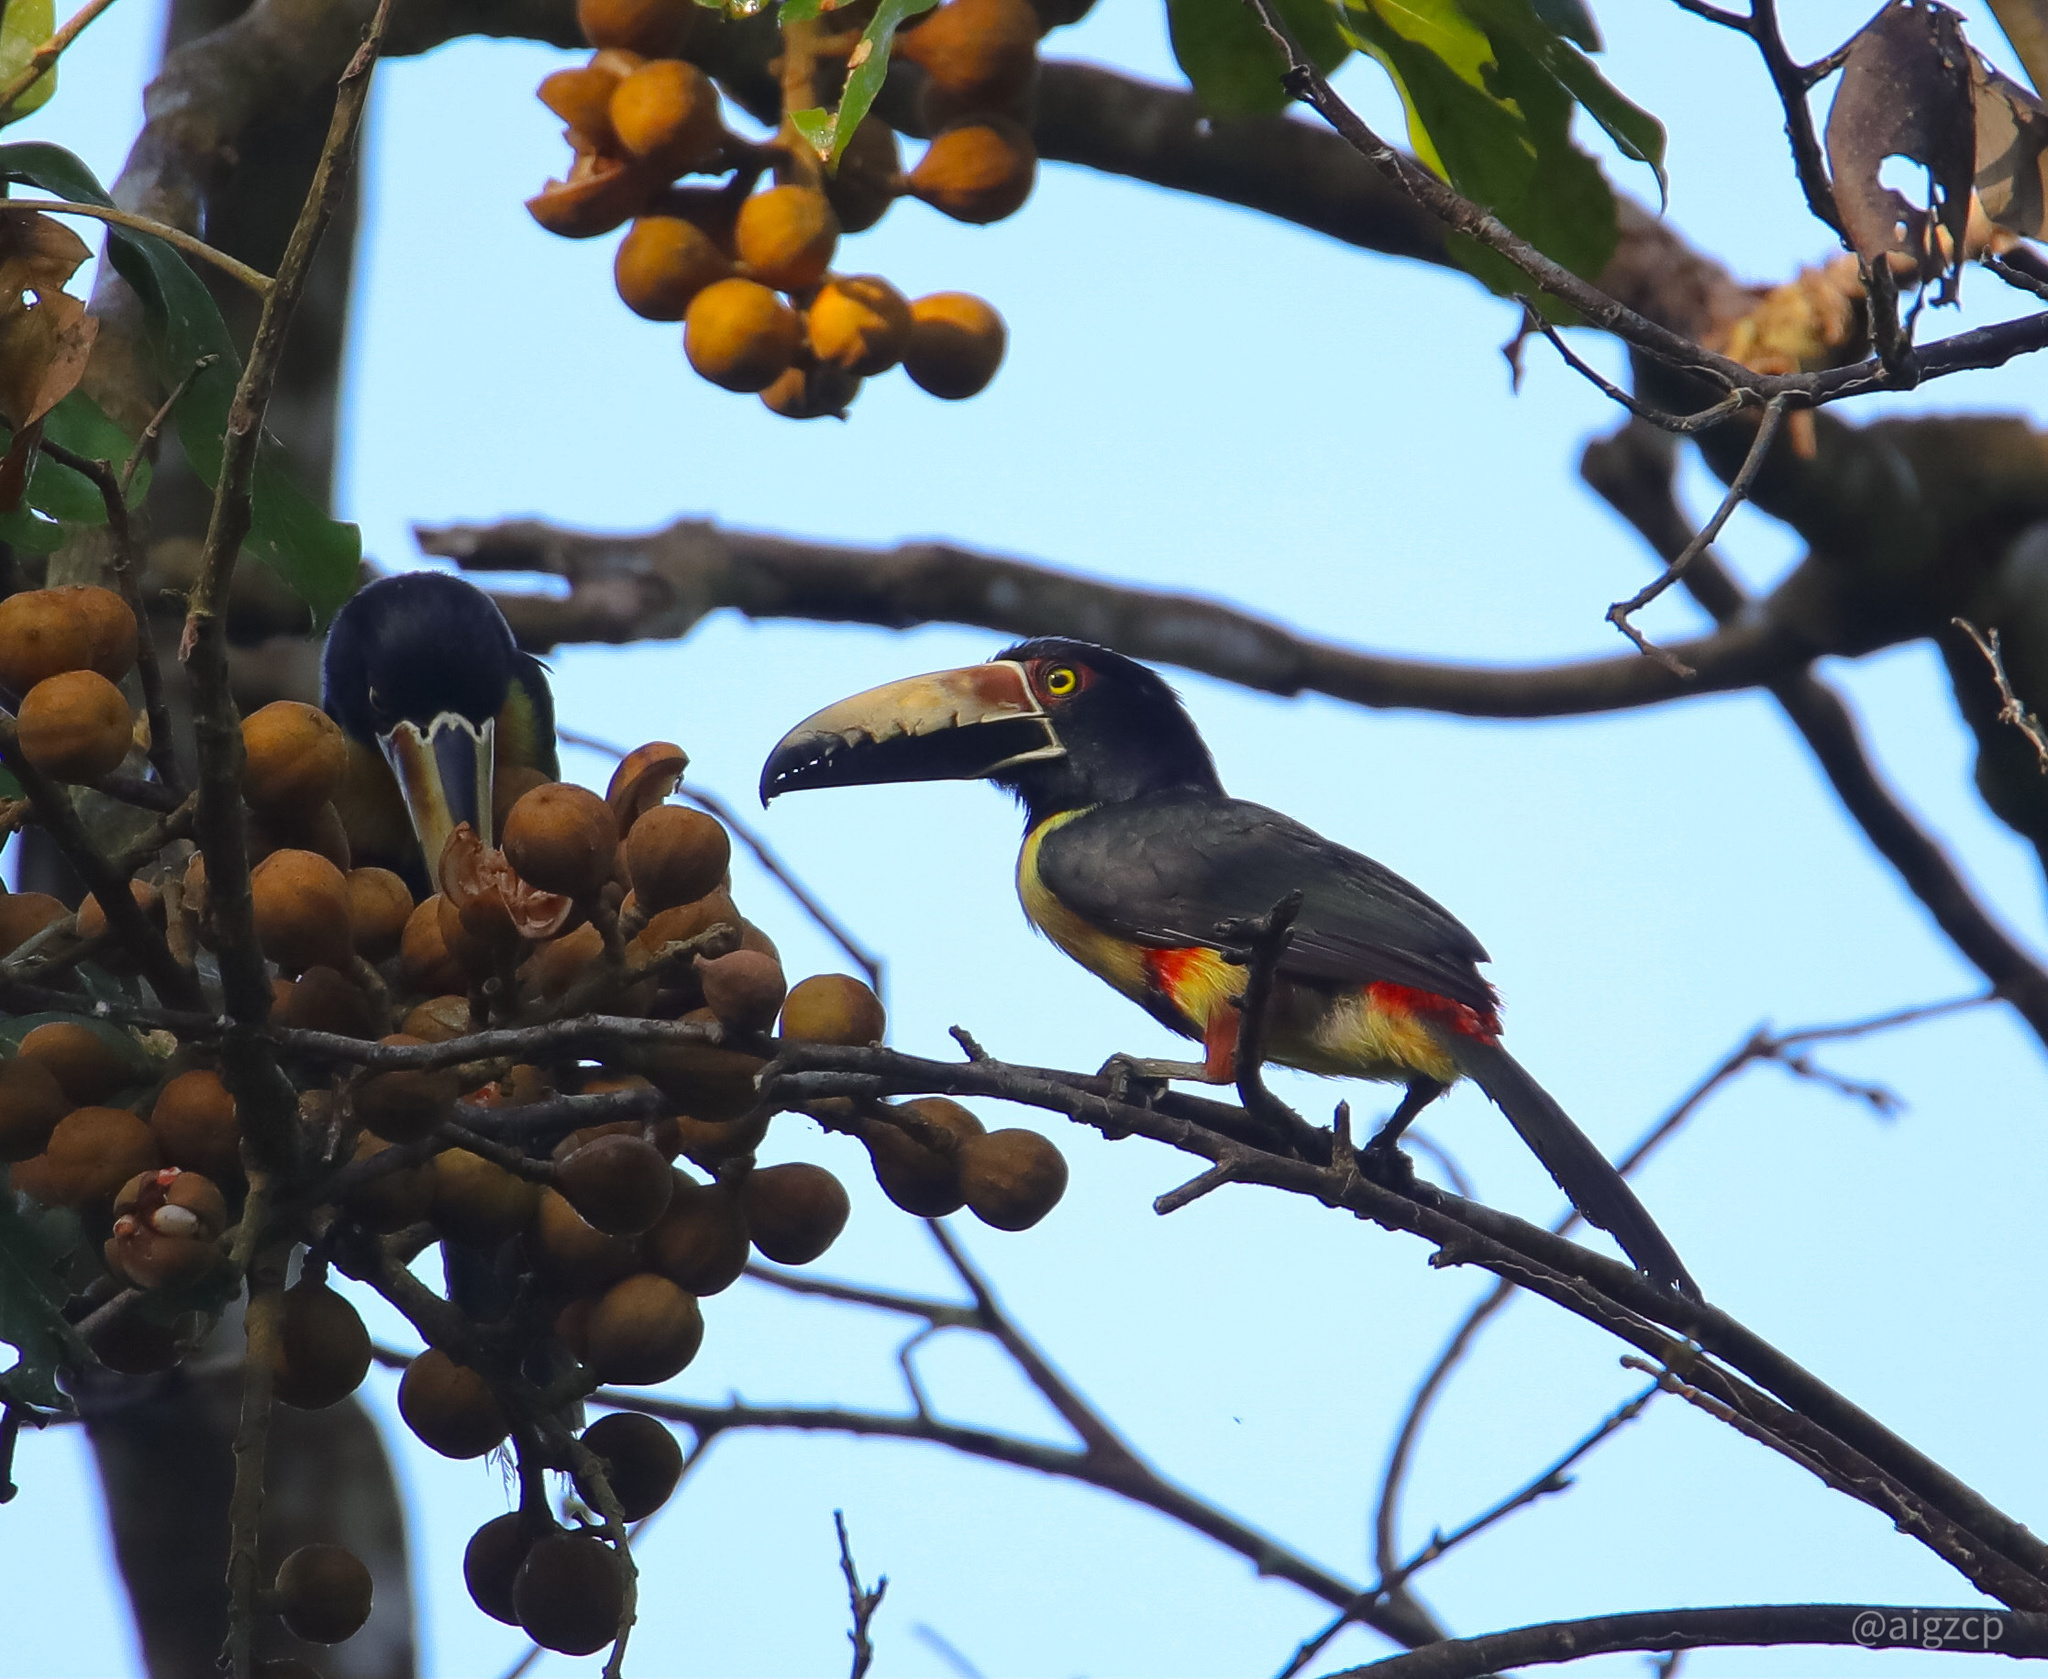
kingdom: Animalia
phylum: Chordata
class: Aves
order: Piciformes
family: Ramphastidae
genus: Pteroglossus
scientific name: Pteroglossus torquatus
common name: Collared aracari
